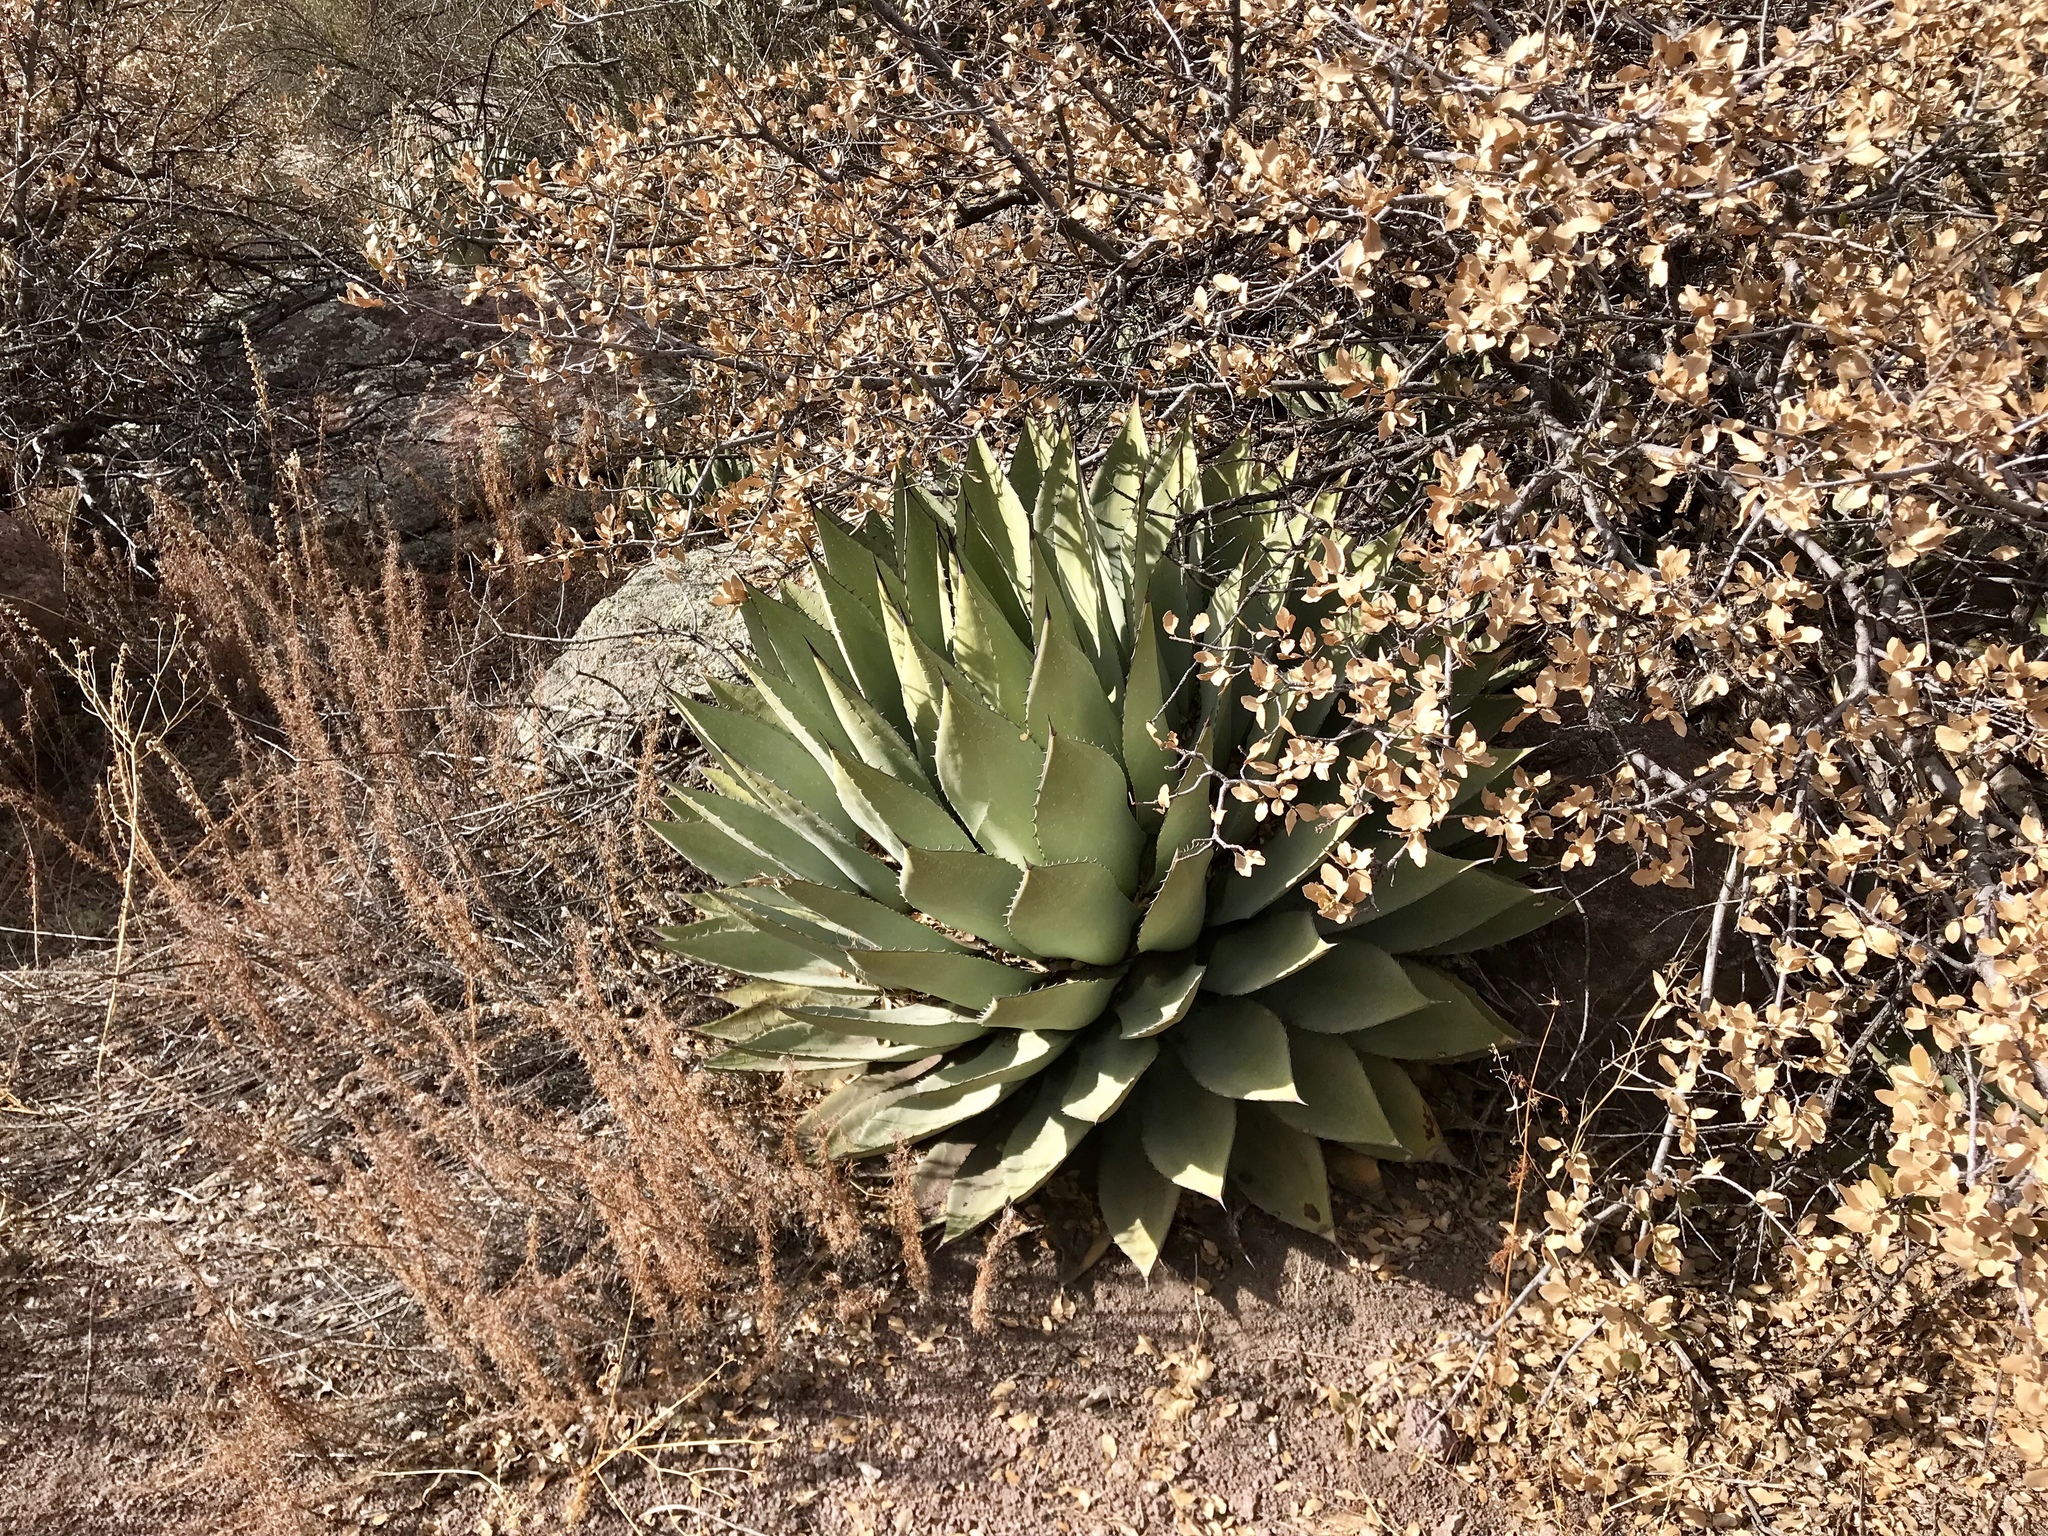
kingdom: Plantae
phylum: Tracheophyta
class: Liliopsida
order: Asparagales
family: Asparagaceae
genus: Agave
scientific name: Agave parryi
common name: Parry's agave
